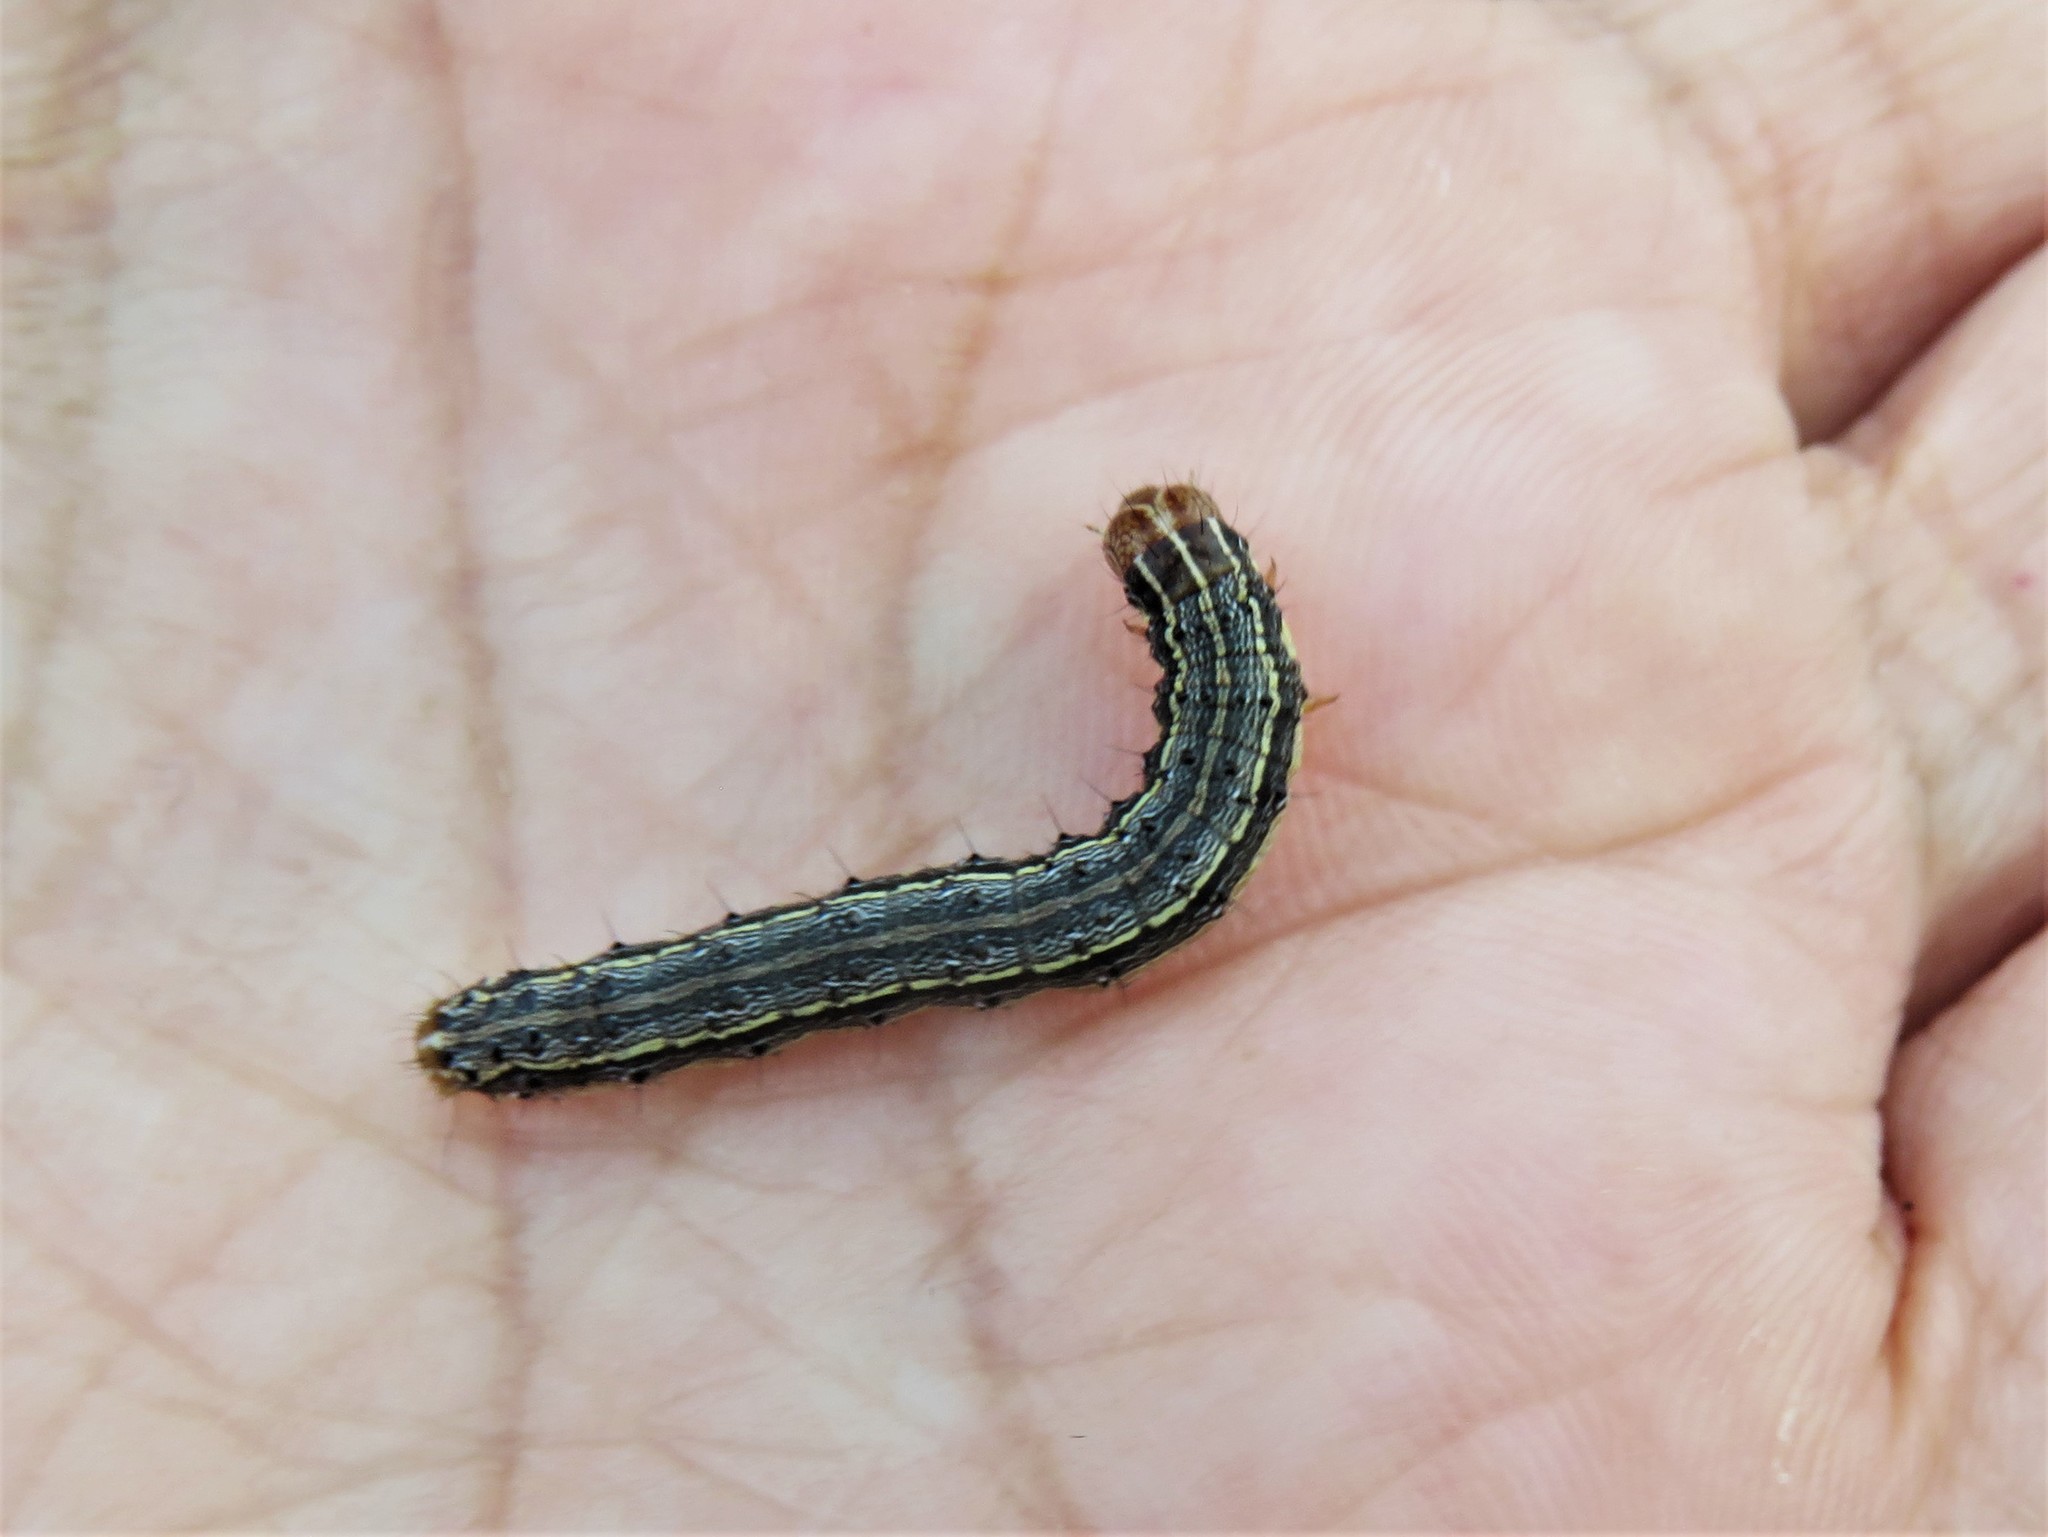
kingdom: Animalia
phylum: Arthropoda
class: Insecta
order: Lepidoptera
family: Noctuidae
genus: Spodoptera
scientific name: Spodoptera frugiperda
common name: Fall armyworm
